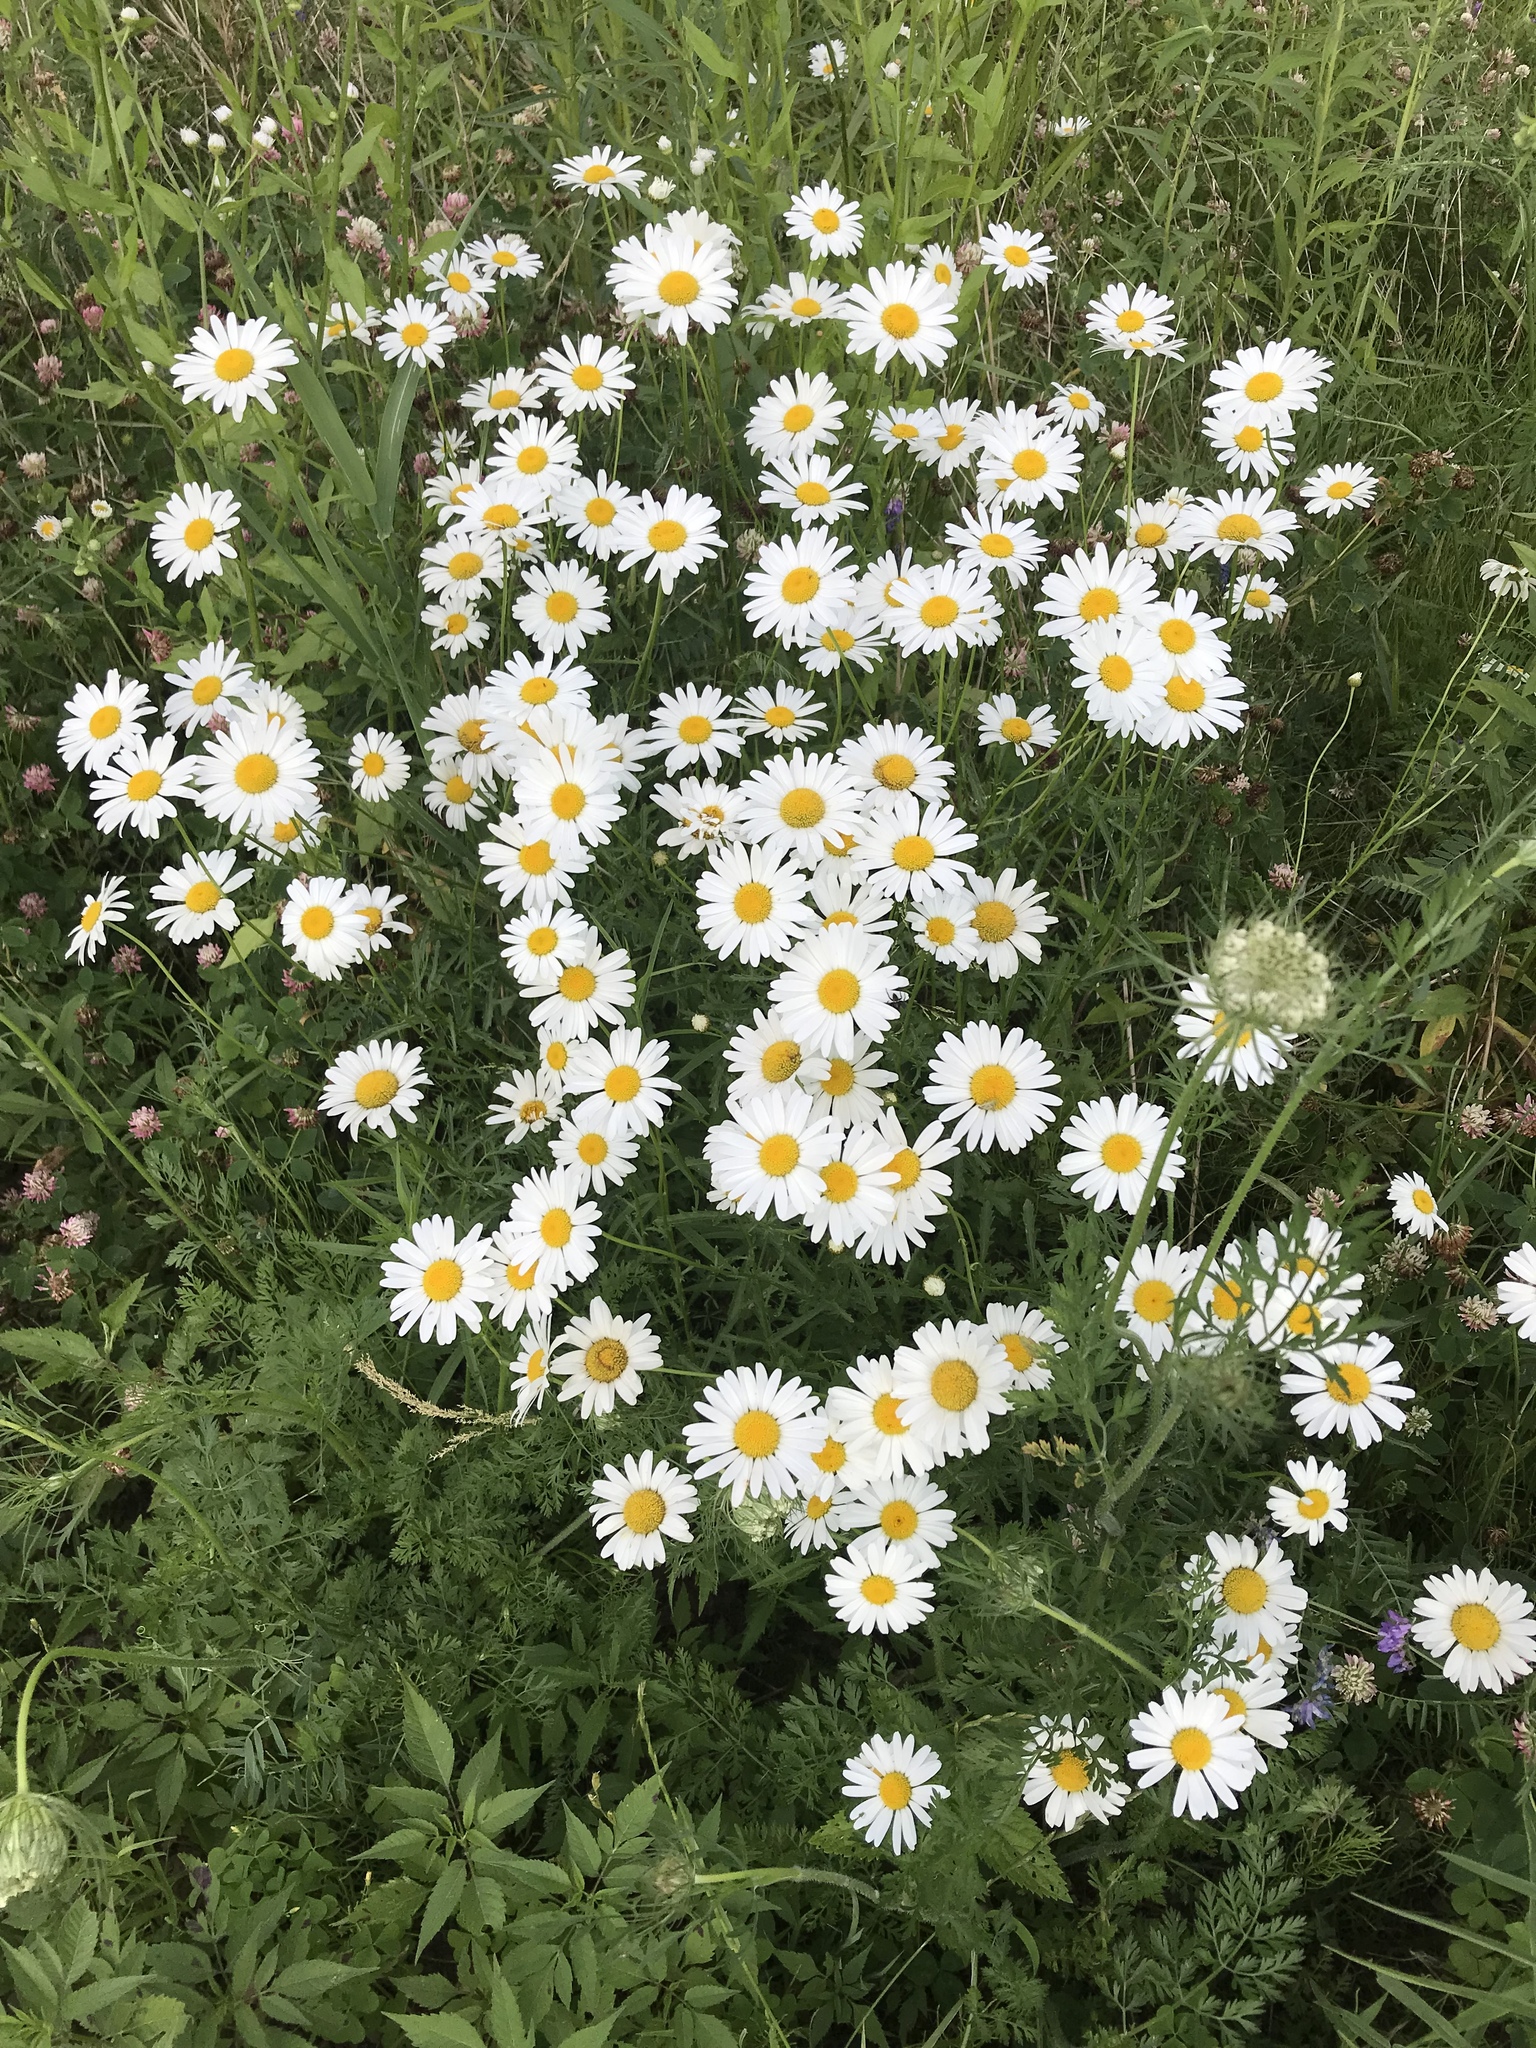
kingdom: Plantae
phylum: Tracheophyta
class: Magnoliopsida
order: Asterales
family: Asteraceae
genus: Leucanthemum
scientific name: Leucanthemum vulgare
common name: Oxeye daisy
